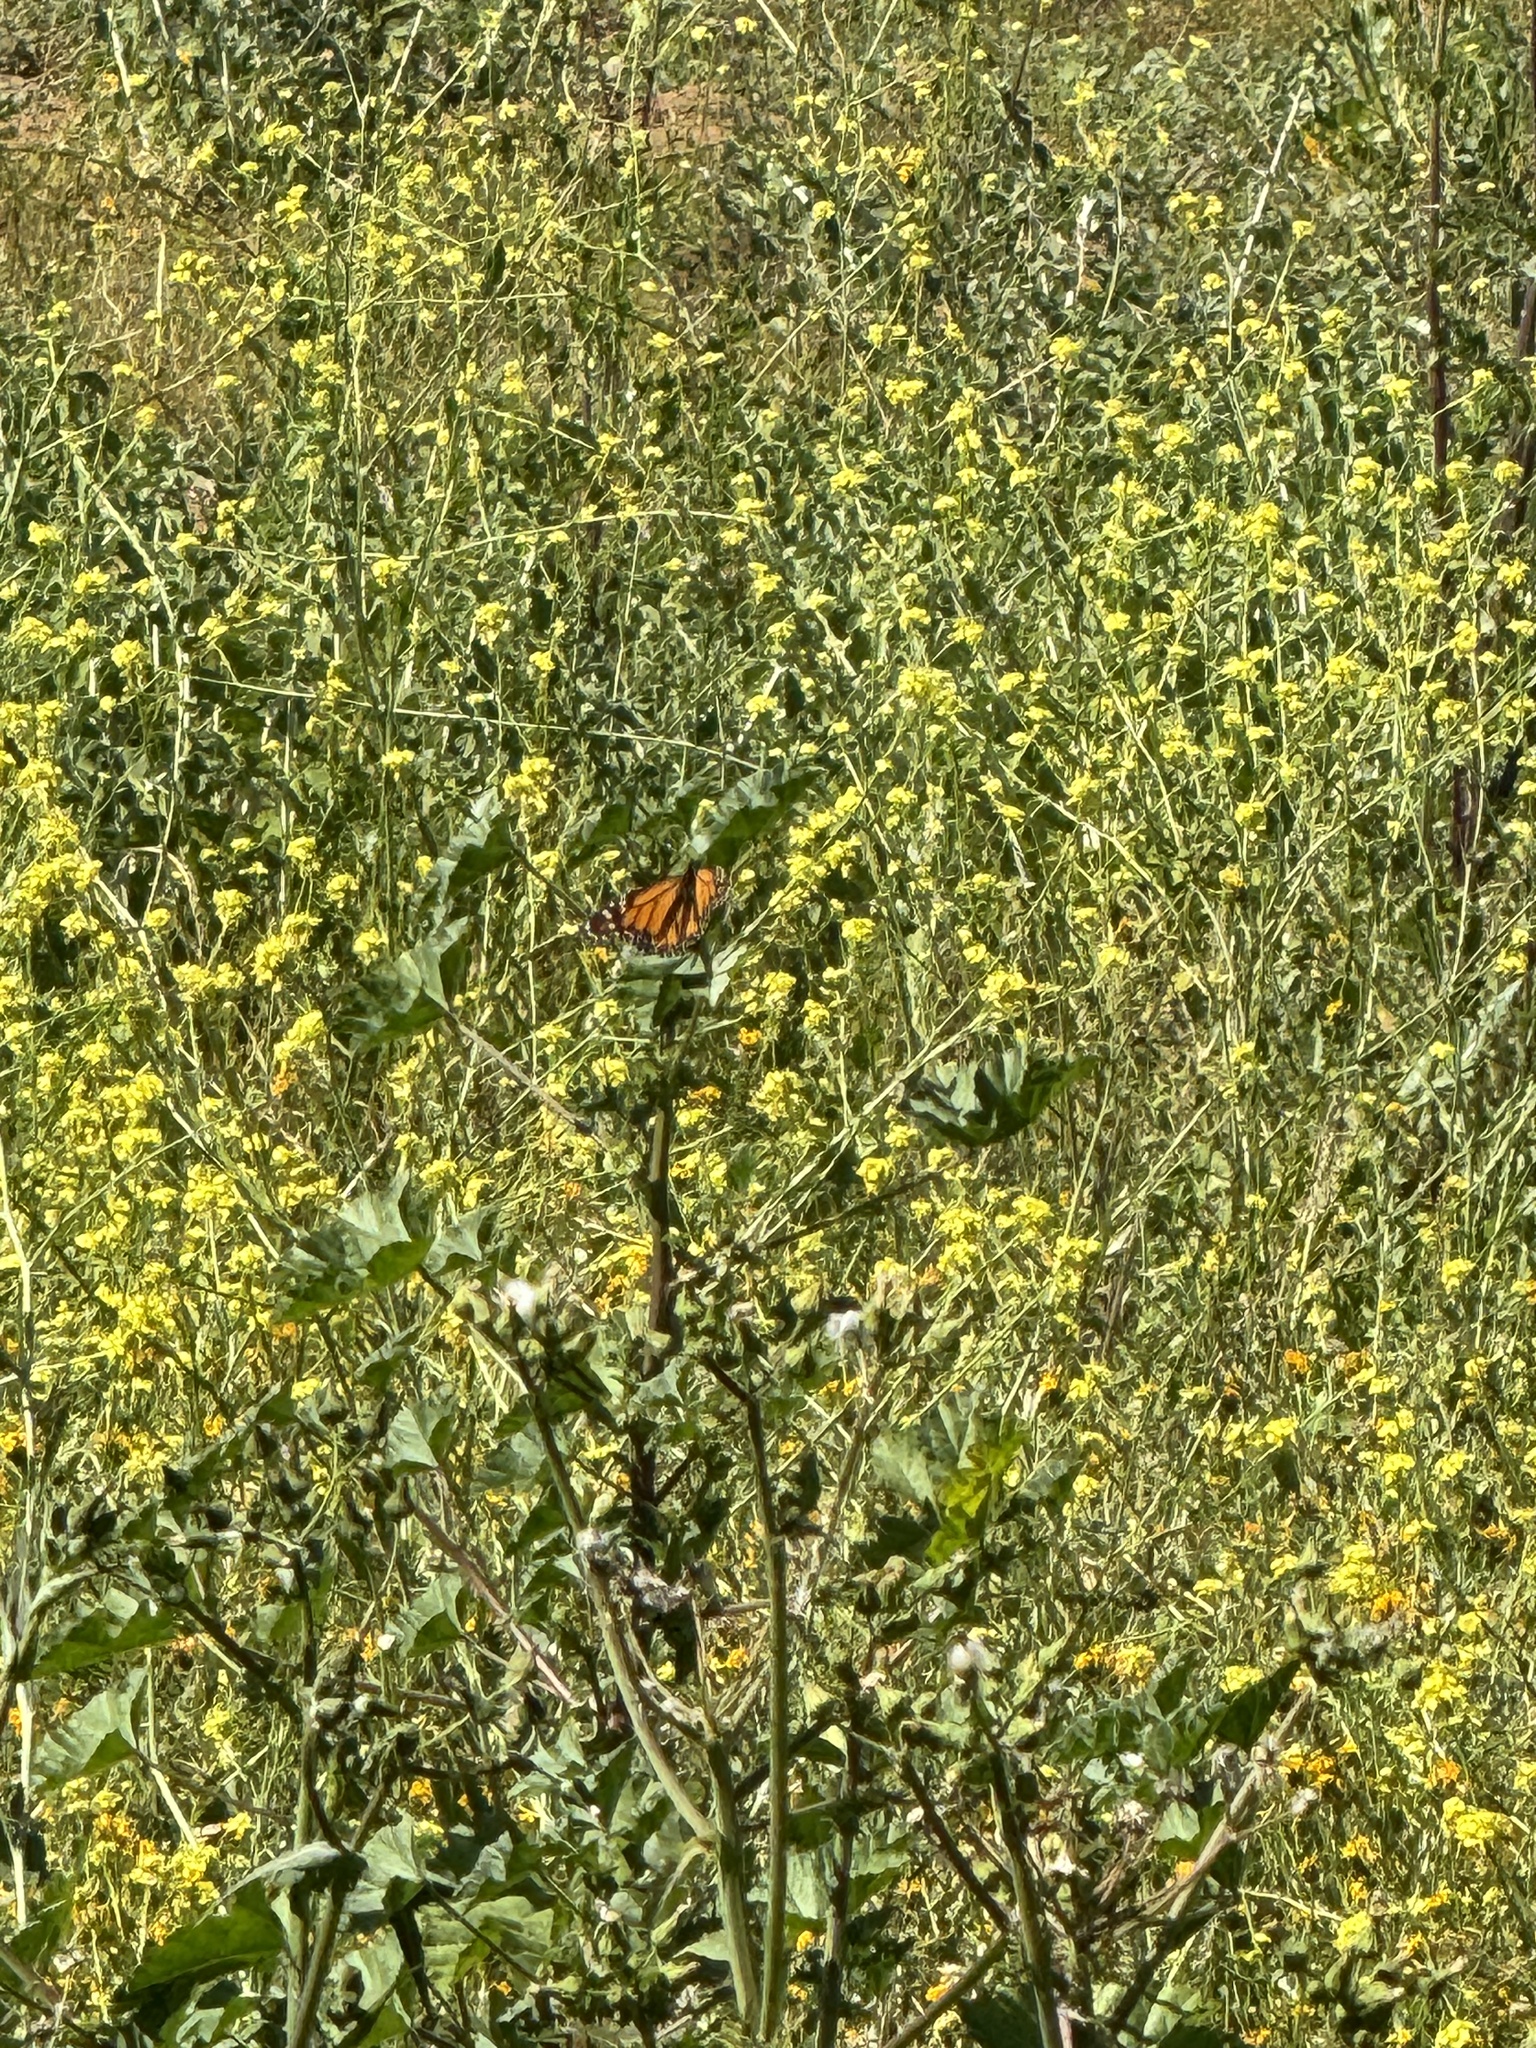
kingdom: Animalia
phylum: Arthropoda
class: Insecta
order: Lepidoptera
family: Nymphalidae
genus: Danaus
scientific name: Danaus plexippus
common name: Monarch
